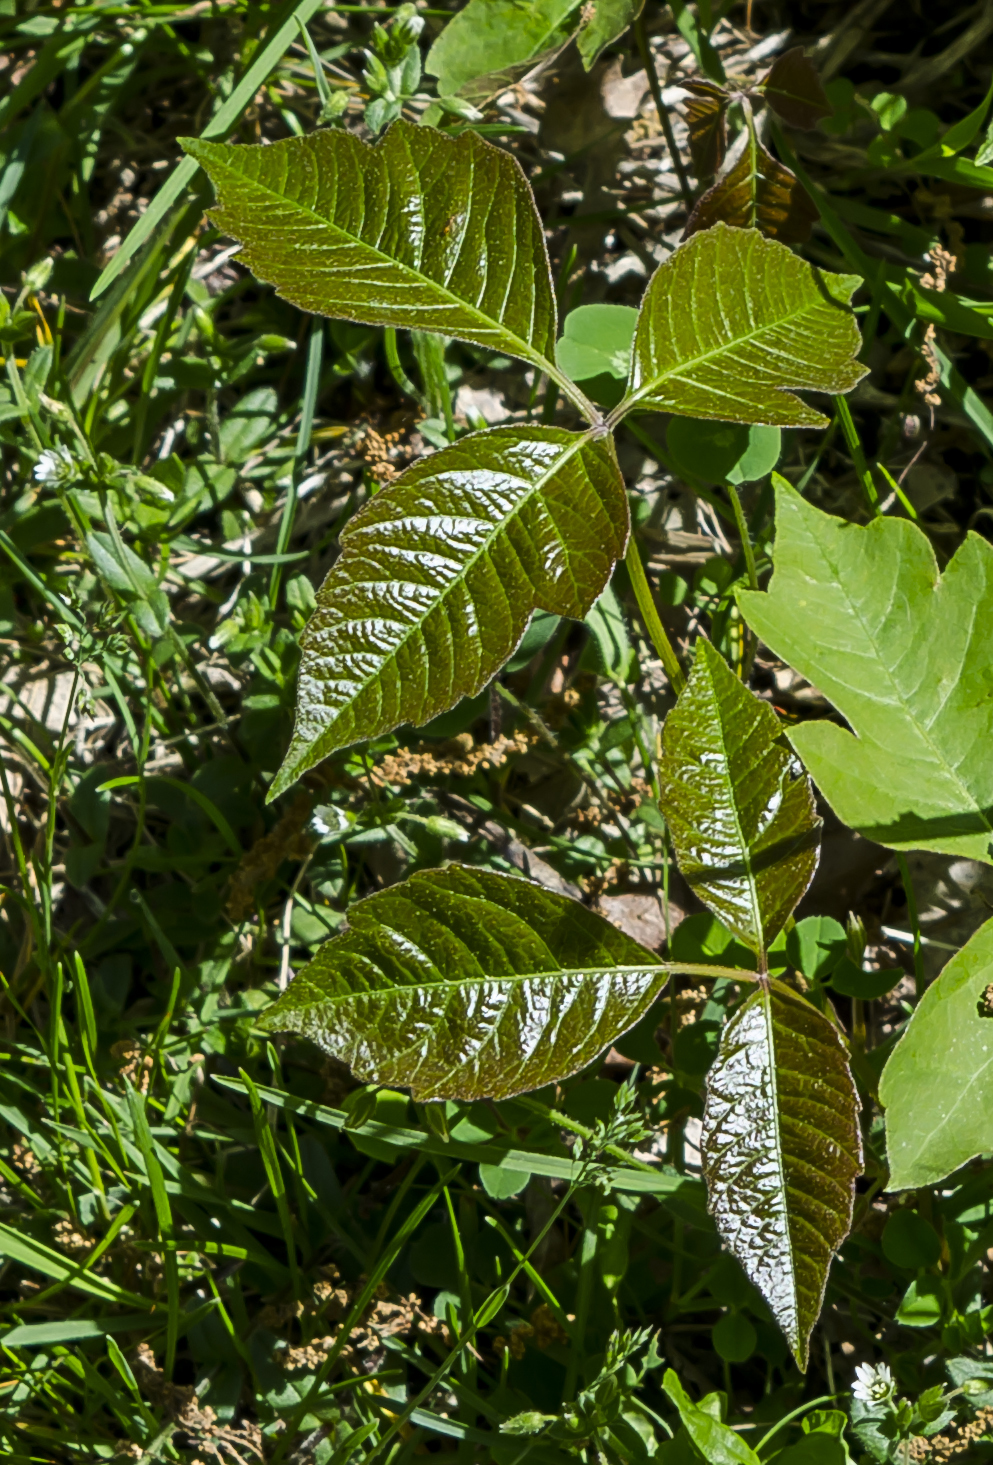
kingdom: Plantae
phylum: Tracheophyta
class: Magnoliopsida
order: Sapindales
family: Anacardiaceae
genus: Toxicodendron
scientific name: Toxicodendron rydbergii
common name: Rydberg's poison-ivy
